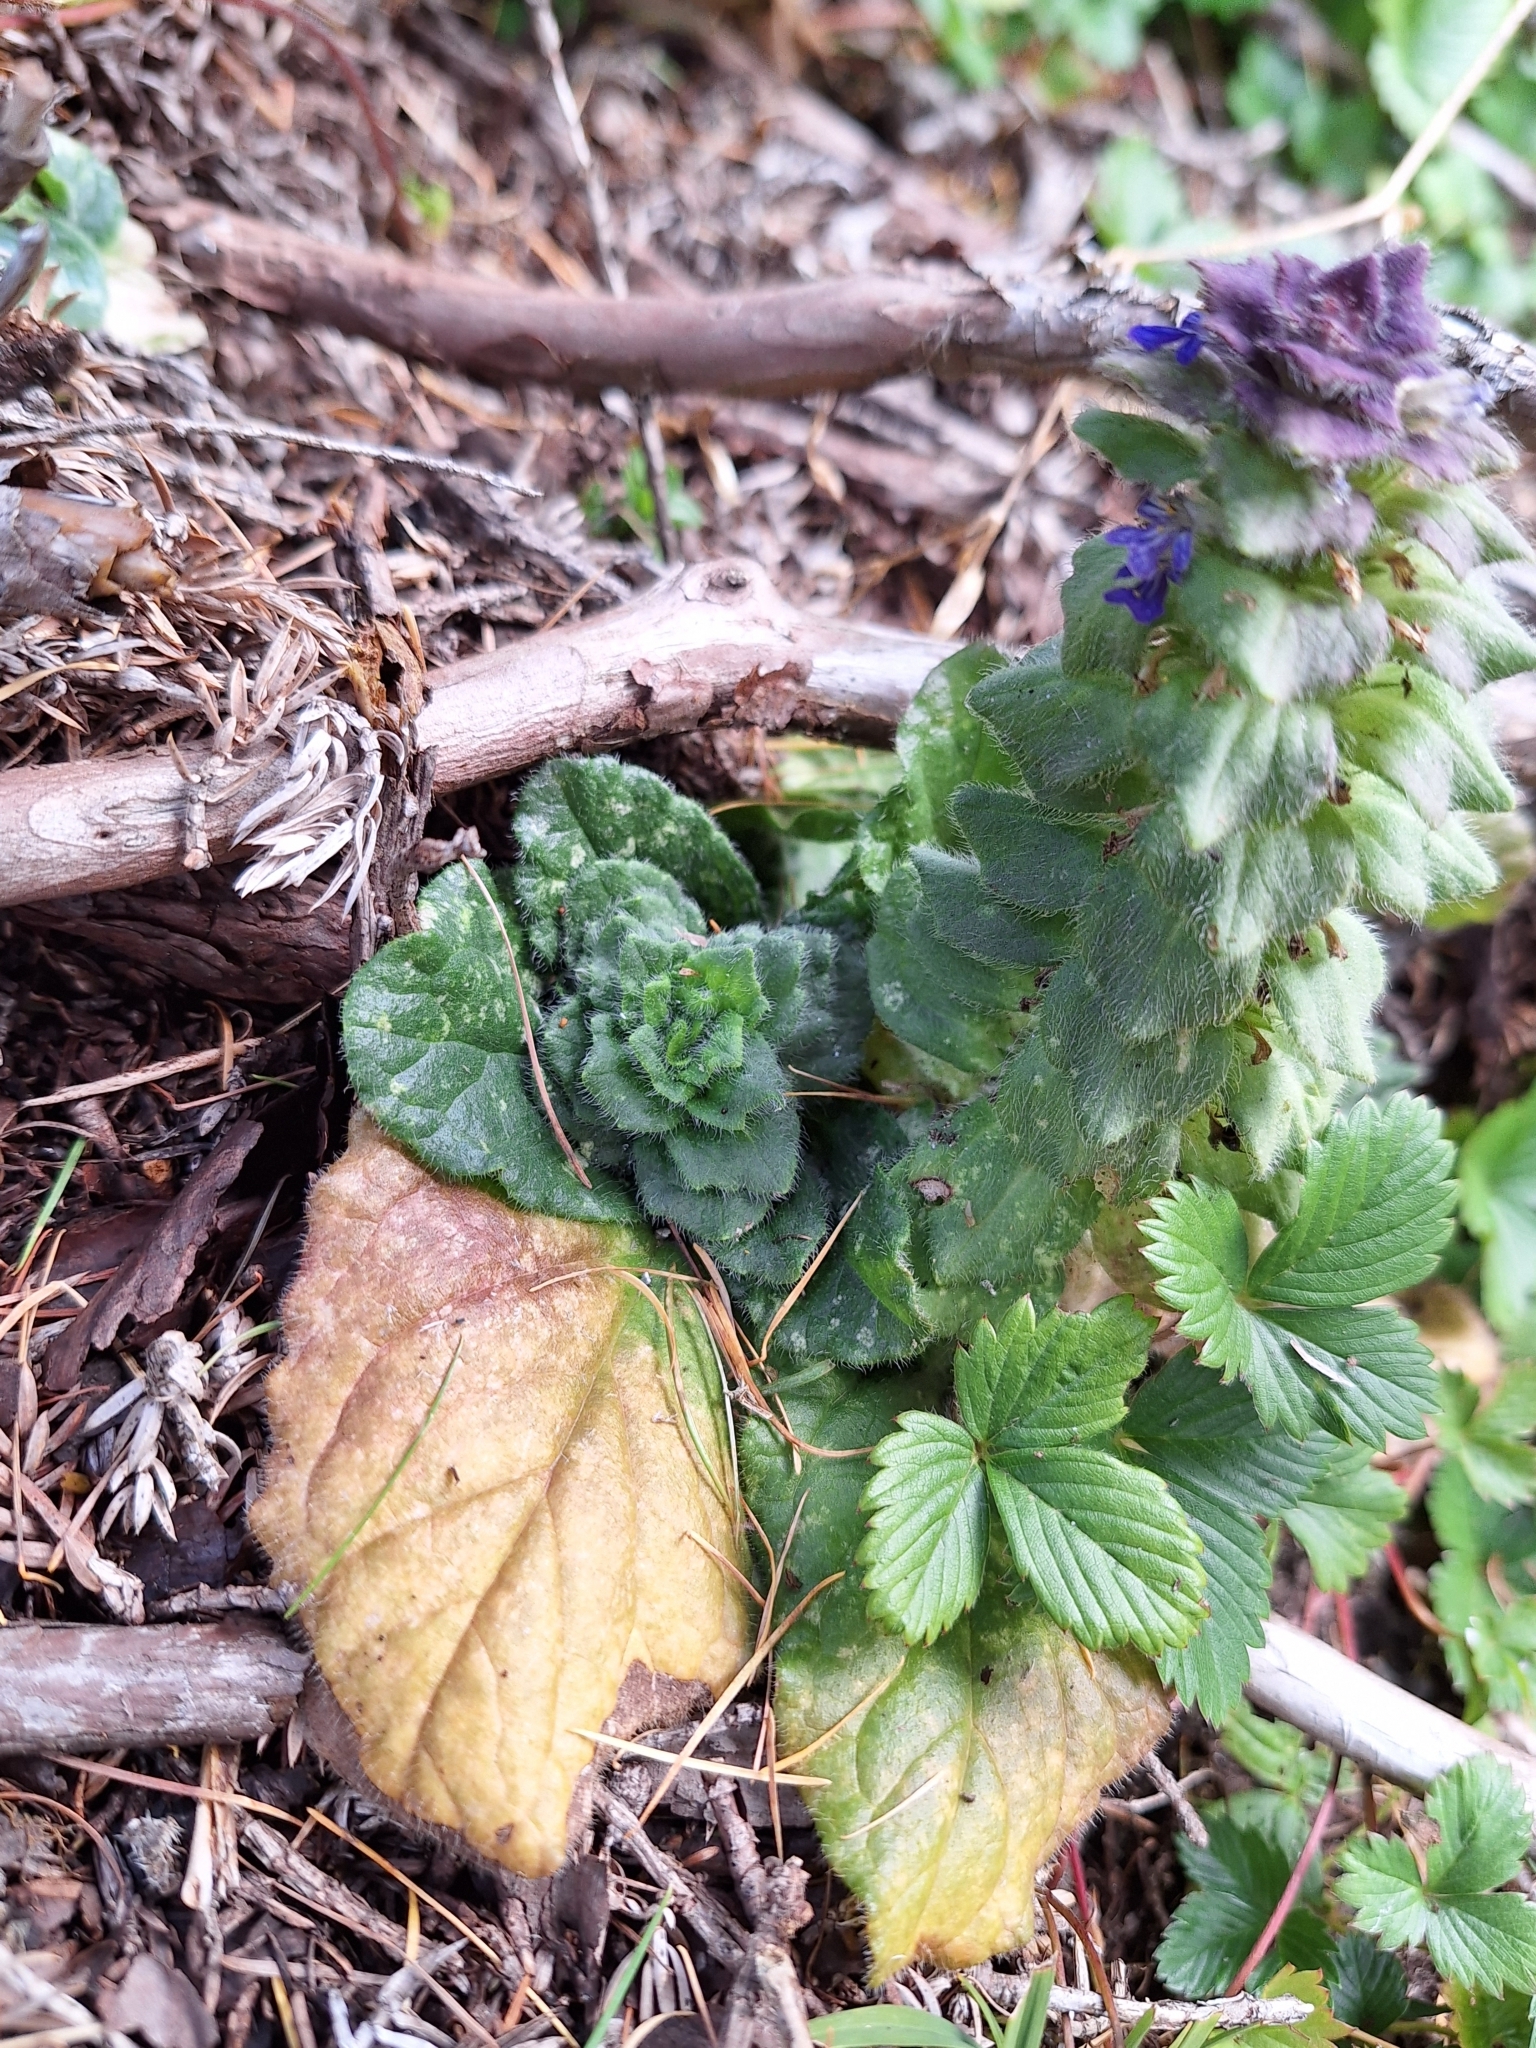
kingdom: Plantae
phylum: Tracheophyta
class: Magnoliopsida
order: Lamiales
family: Lamiaceae
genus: Ajuga
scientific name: Ajuga pyramidalis
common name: Pyramid bugle
